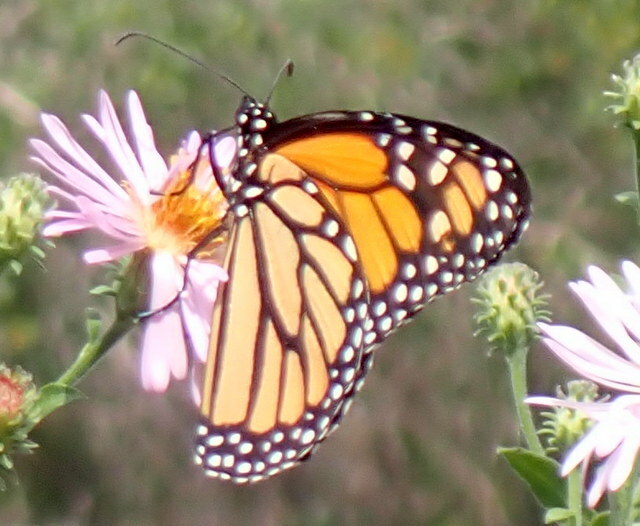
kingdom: Animalia
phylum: Arthropoda
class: Insecta
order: Lepidoptera
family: Nymphalidae
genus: Danaus
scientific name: Danaus plexippus
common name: Monarch
